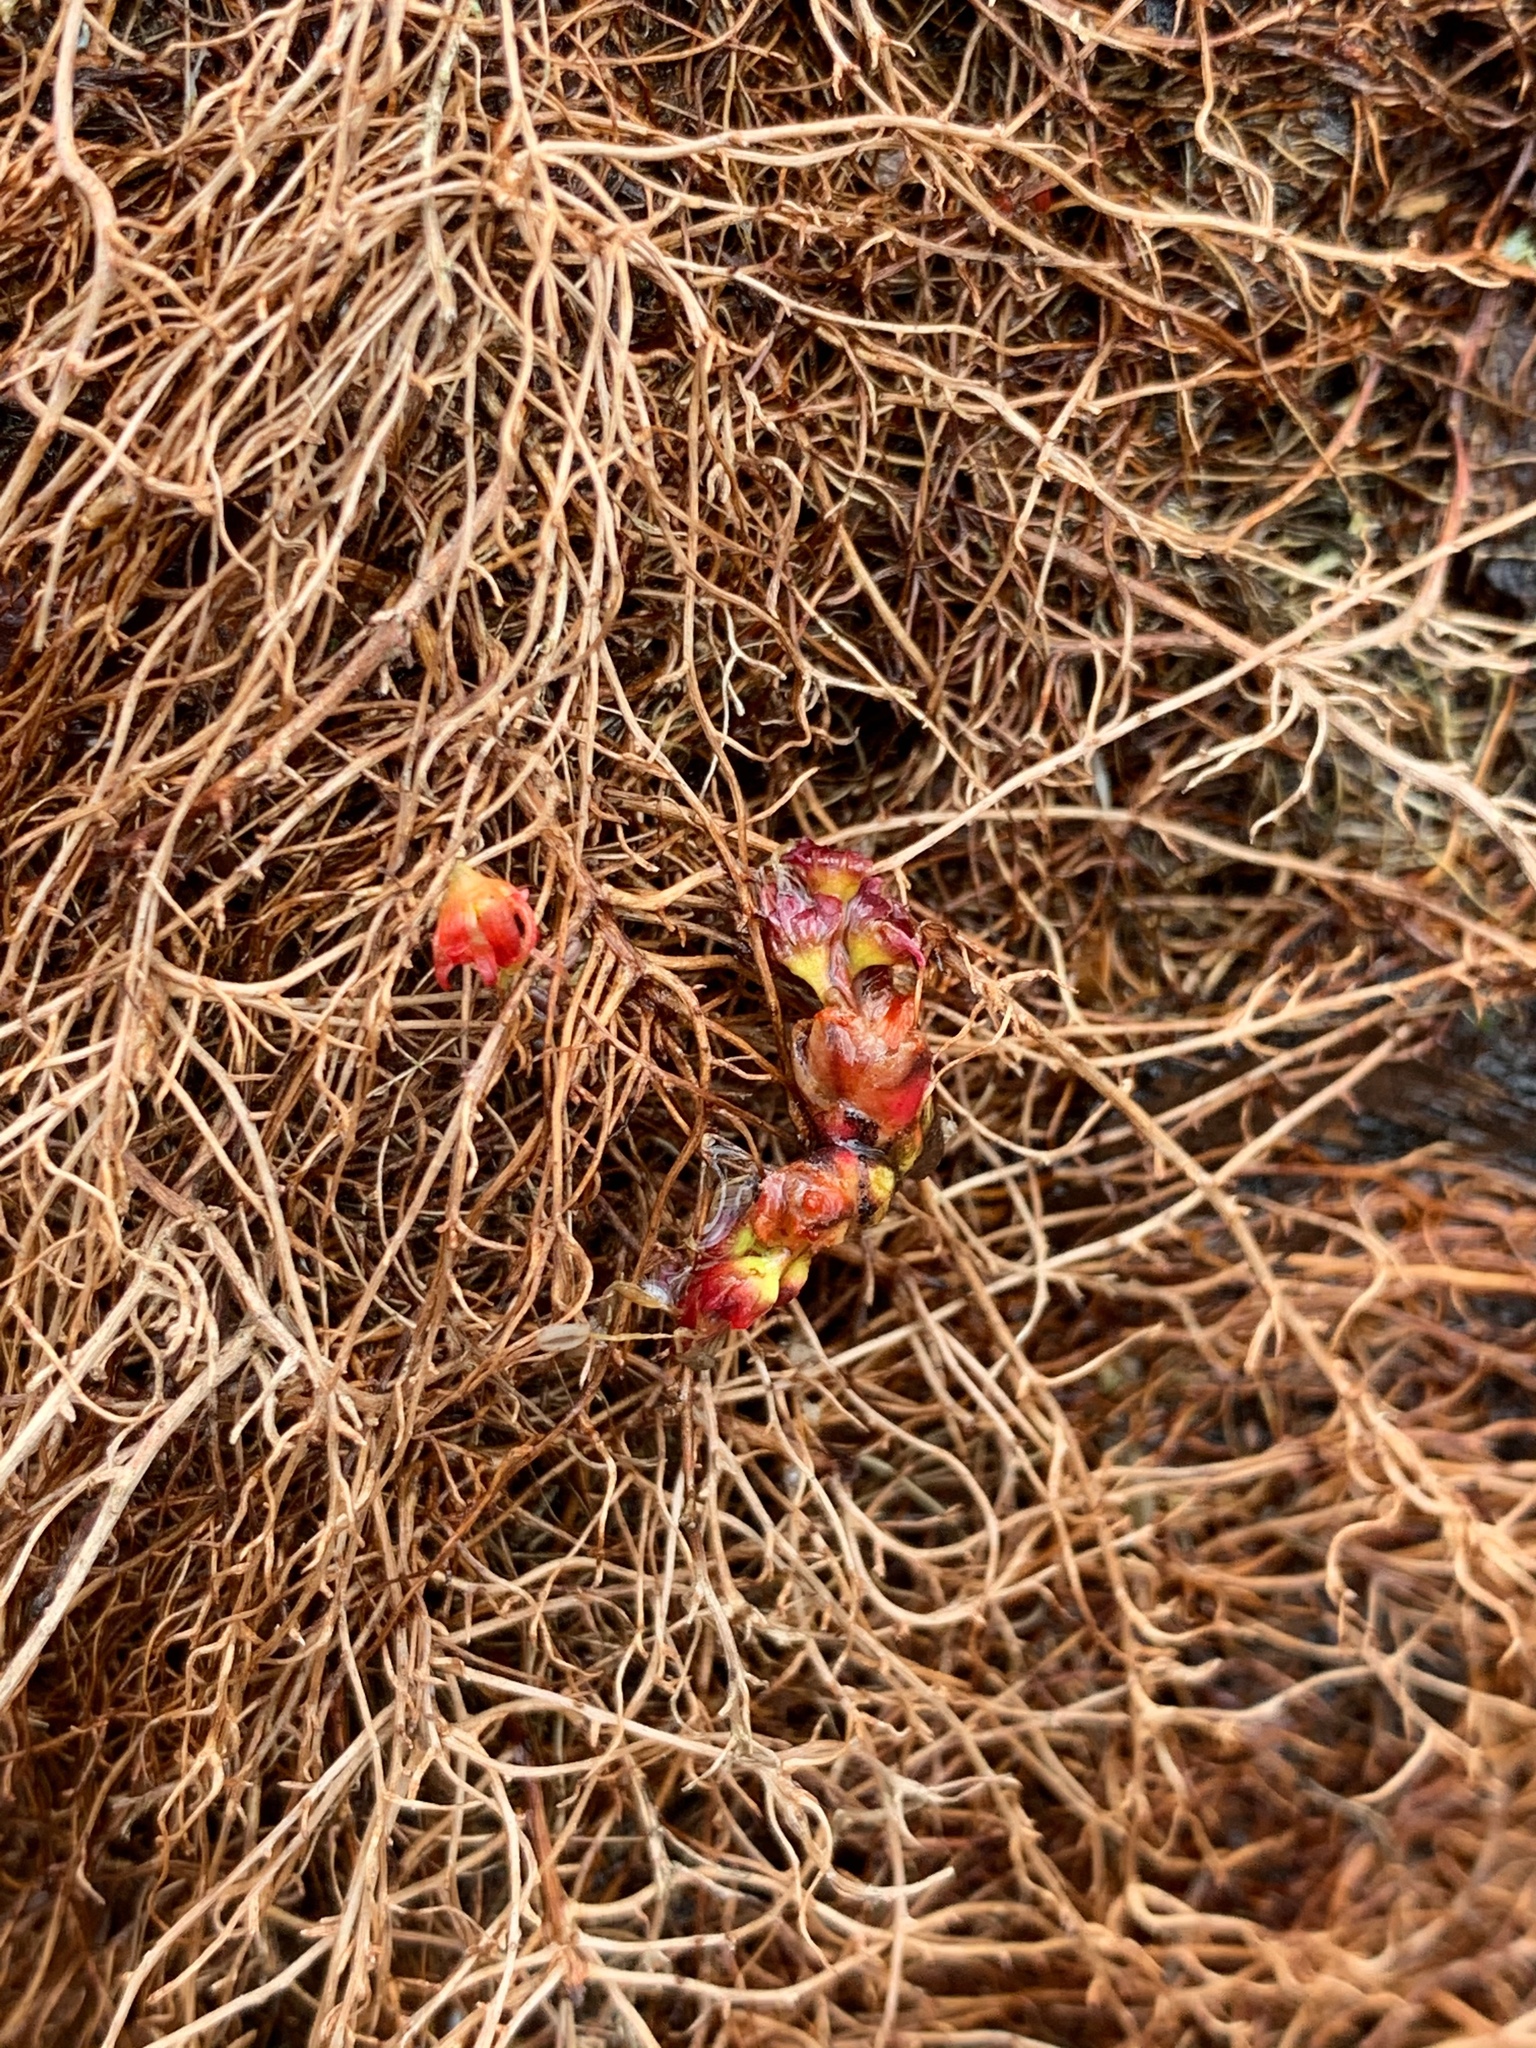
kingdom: Plantae
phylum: Tracheophyta
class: Magnoliopsida
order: Sapindales
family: Anacardiaceae
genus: Toxicodendron
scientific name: Toxicodendron radicans
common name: Poison ivy
